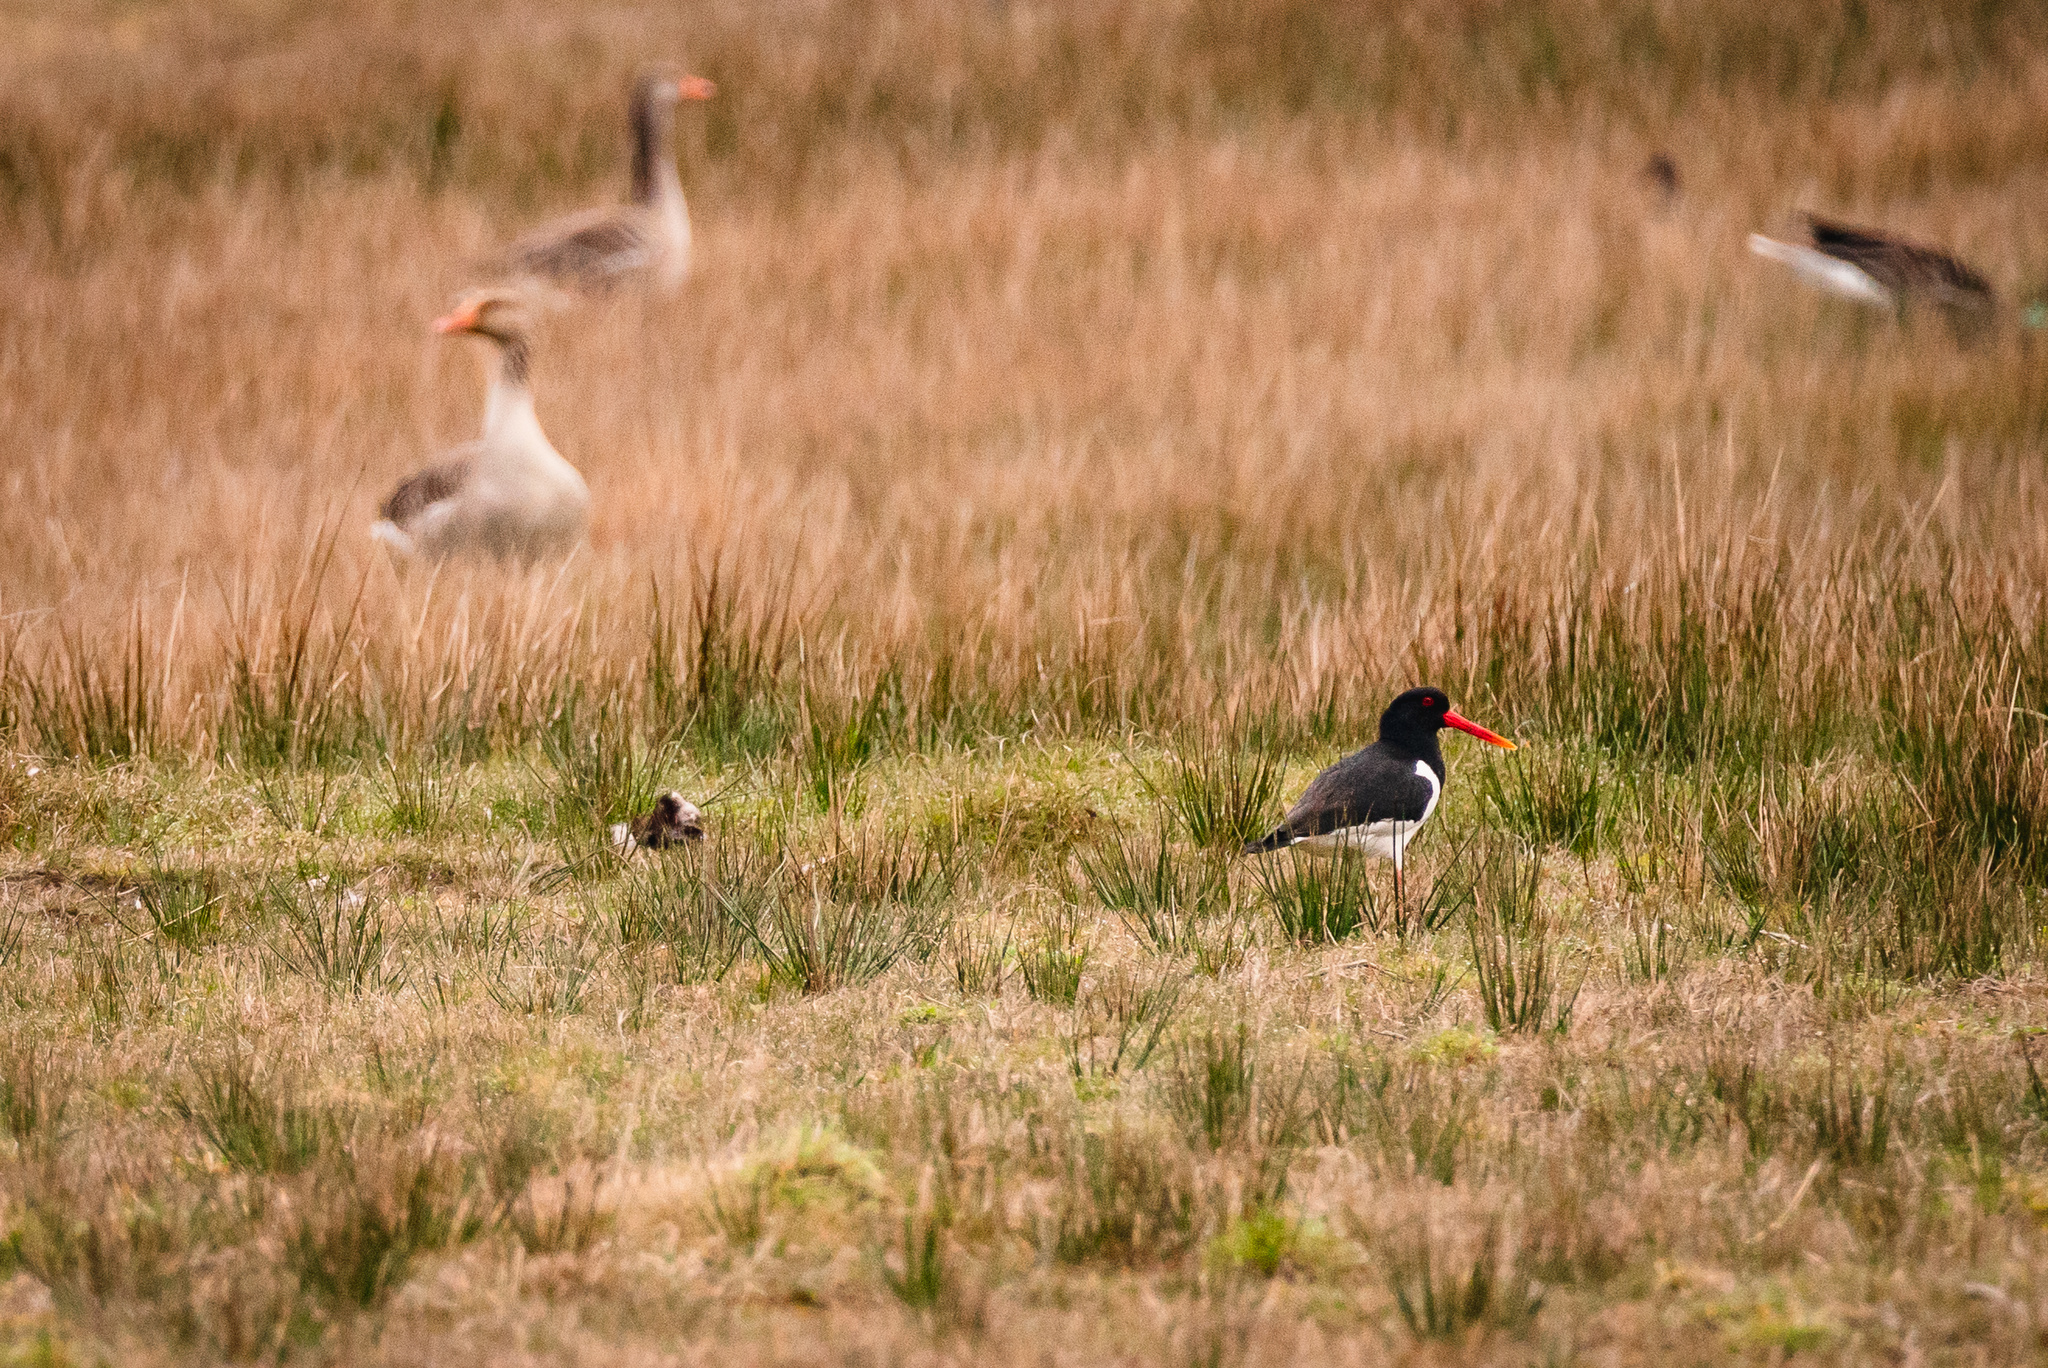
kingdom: Animalia
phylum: Chordata
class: Aves
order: Charadriiformes
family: Haematopodidae
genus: Haematopus
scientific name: Haematopus ostralegus
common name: Eurasian oystercatcher
